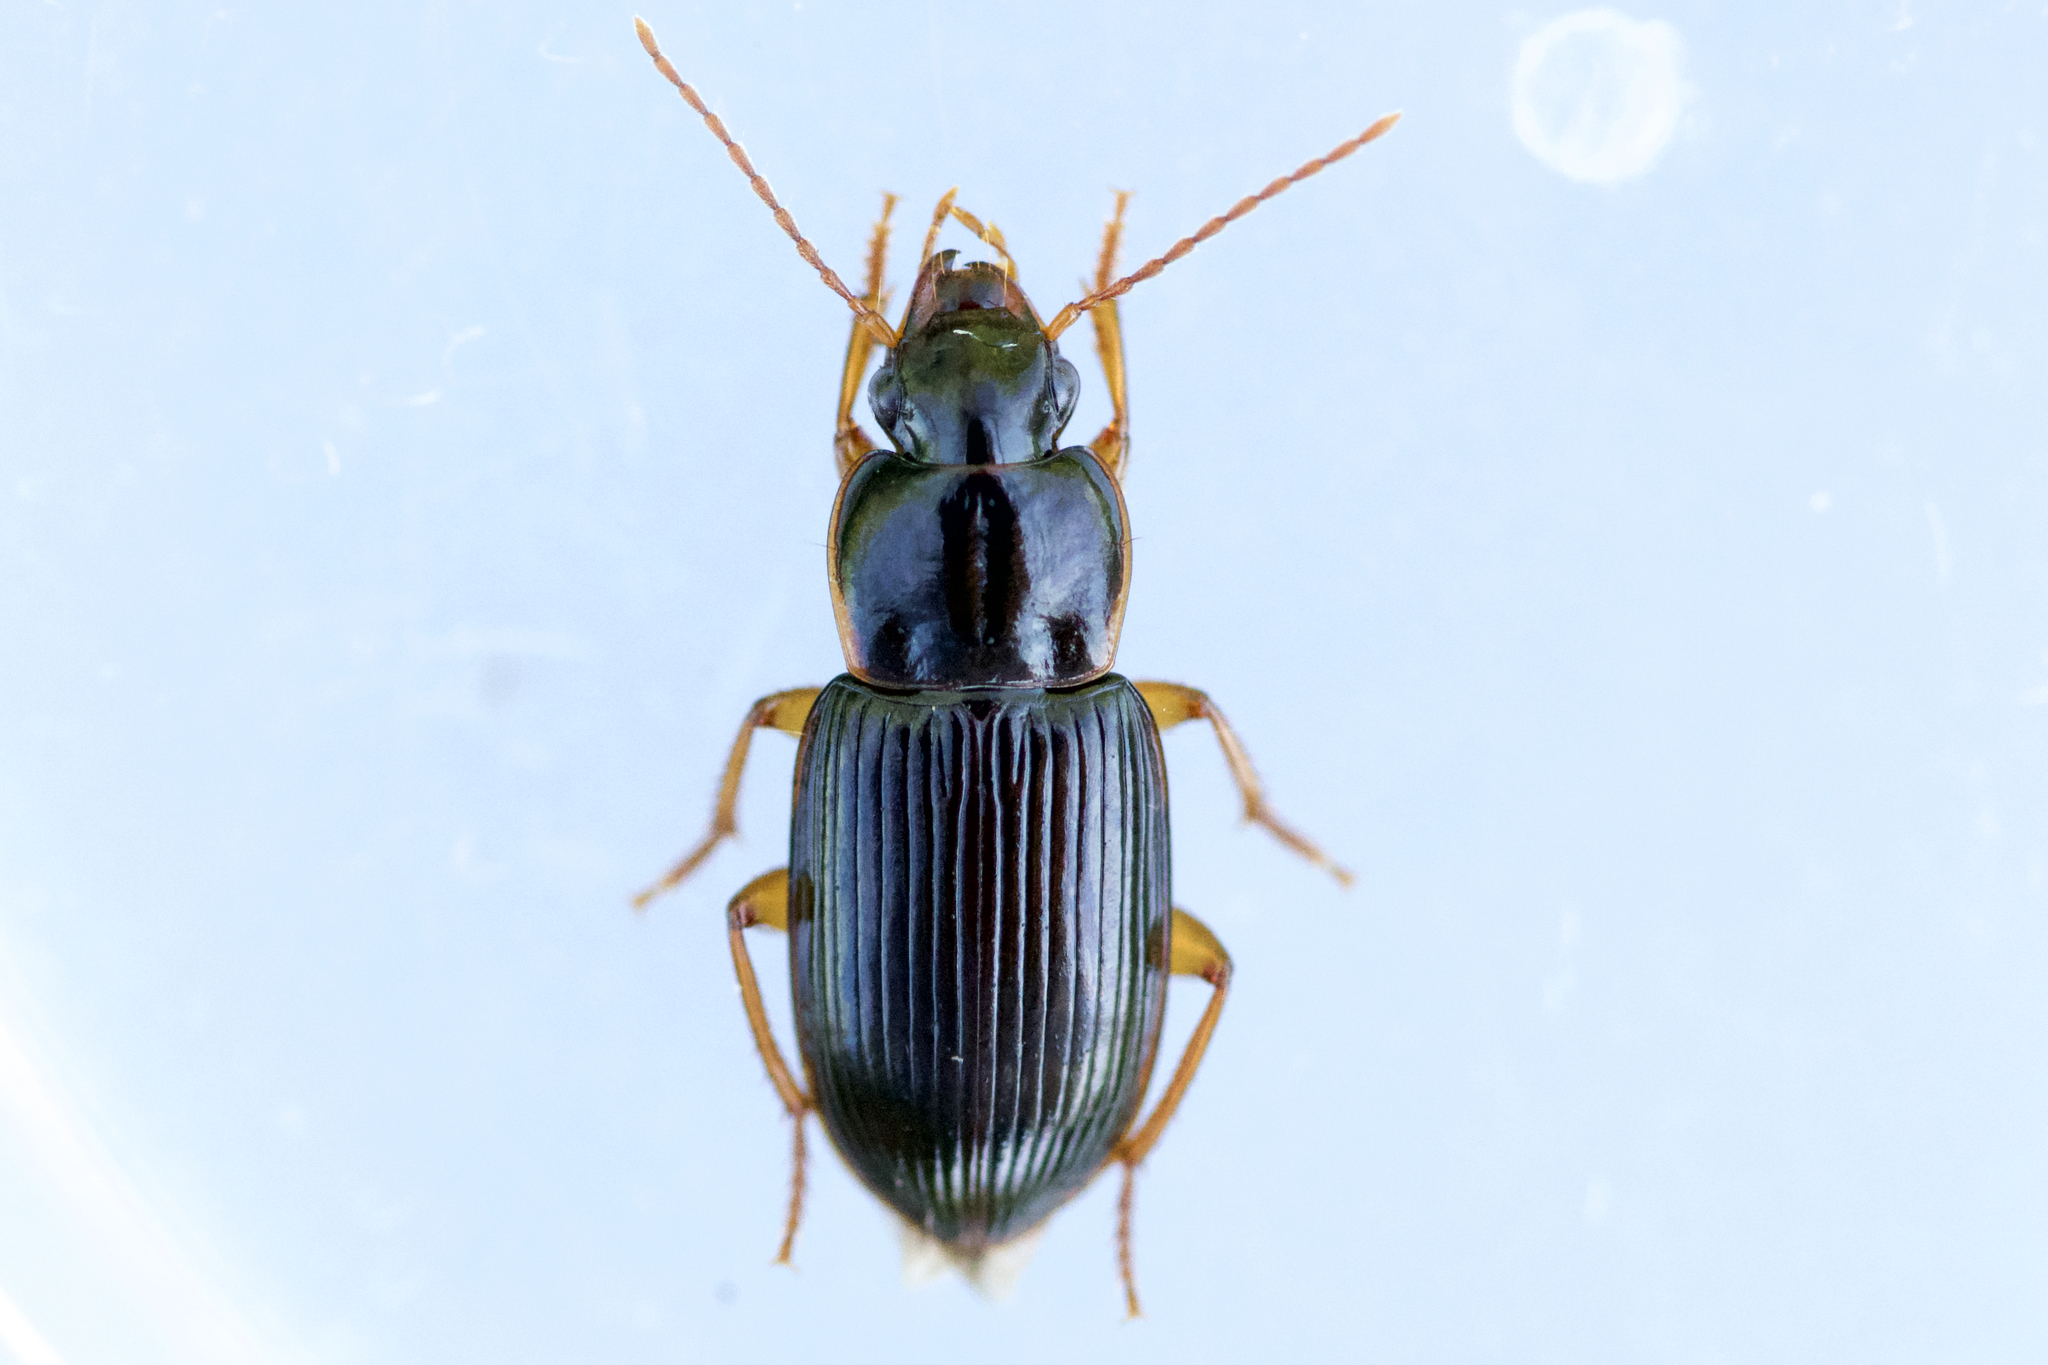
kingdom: Animalia
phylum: Arthropoda
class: Insecta
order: Coleoptera
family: Carabidae
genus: Trichotichnus
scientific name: Trichotichnus autumnalis
